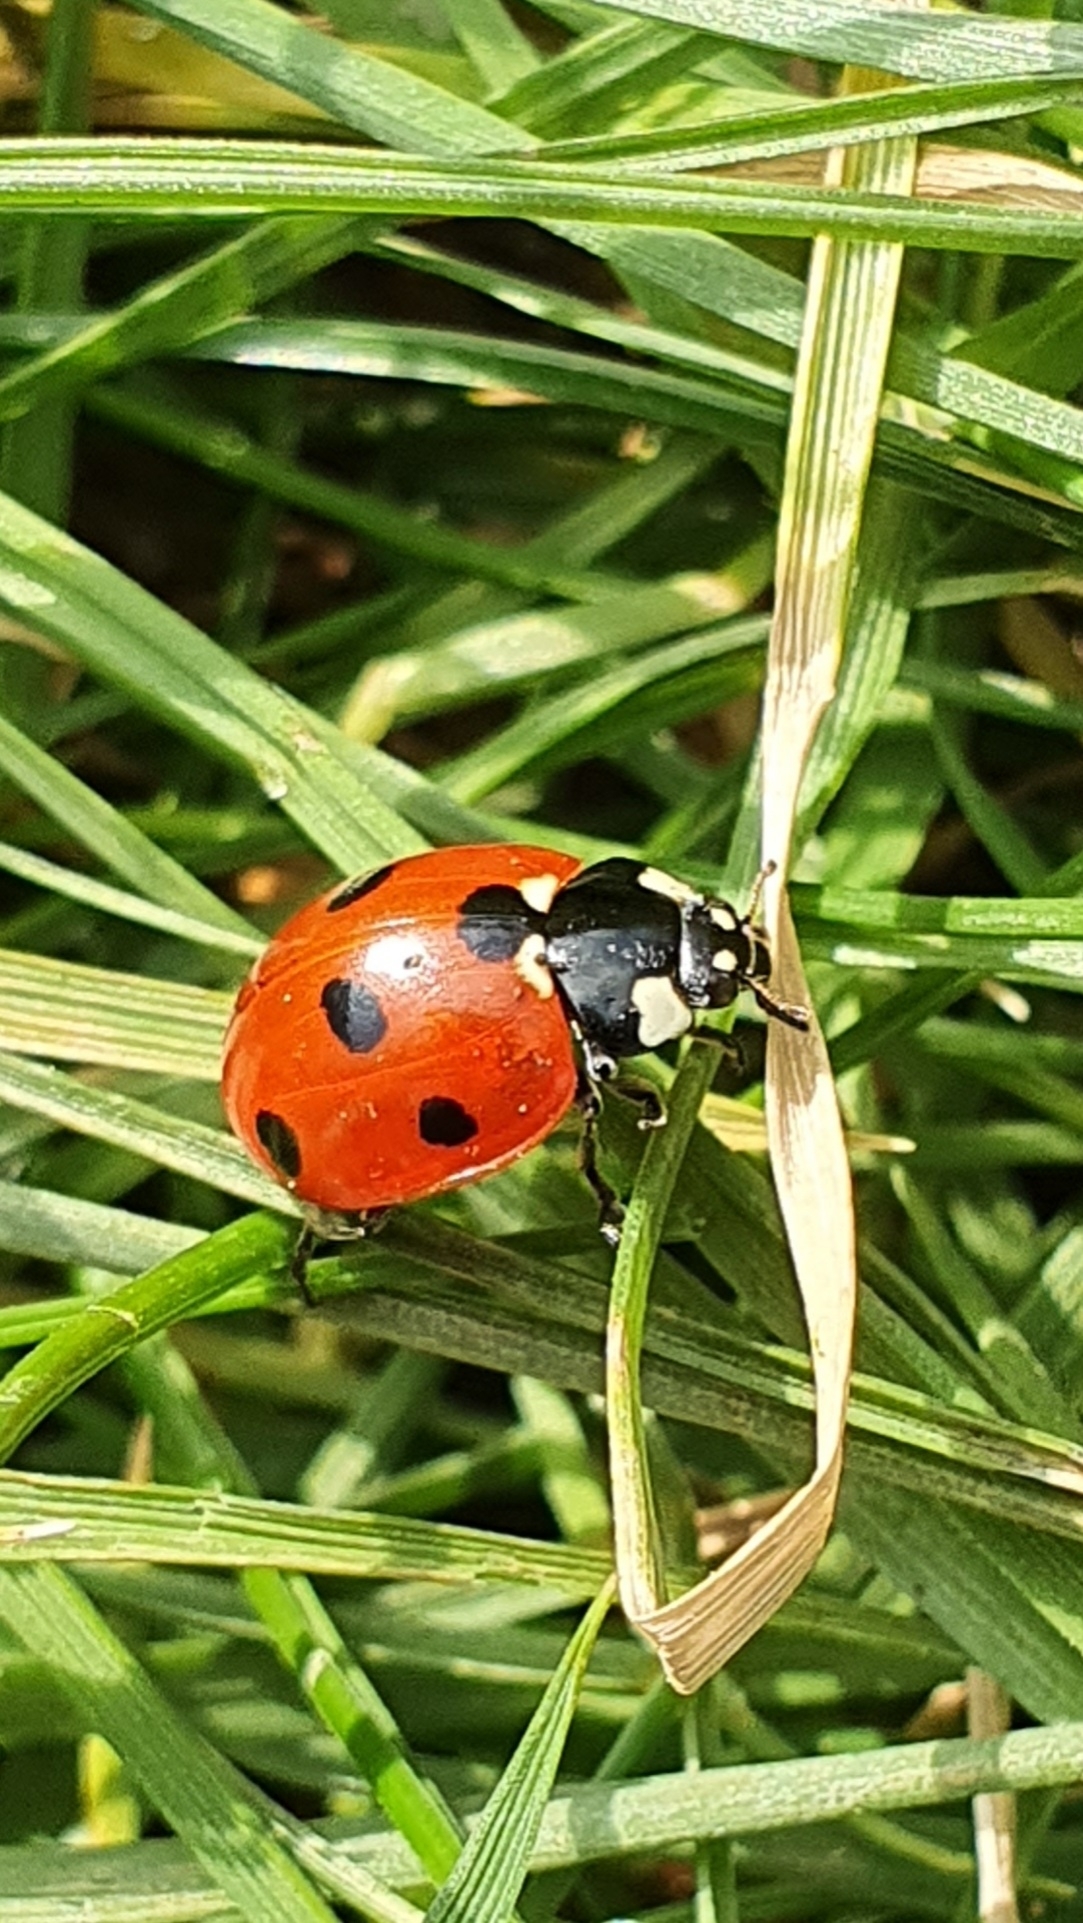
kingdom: Animalia
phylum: Arthropoda
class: Insecta
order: Coleoptera
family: Coccinellidae
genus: Coccinella
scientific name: Coccinella septempunctata
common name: Sevenspotted lady beetle
